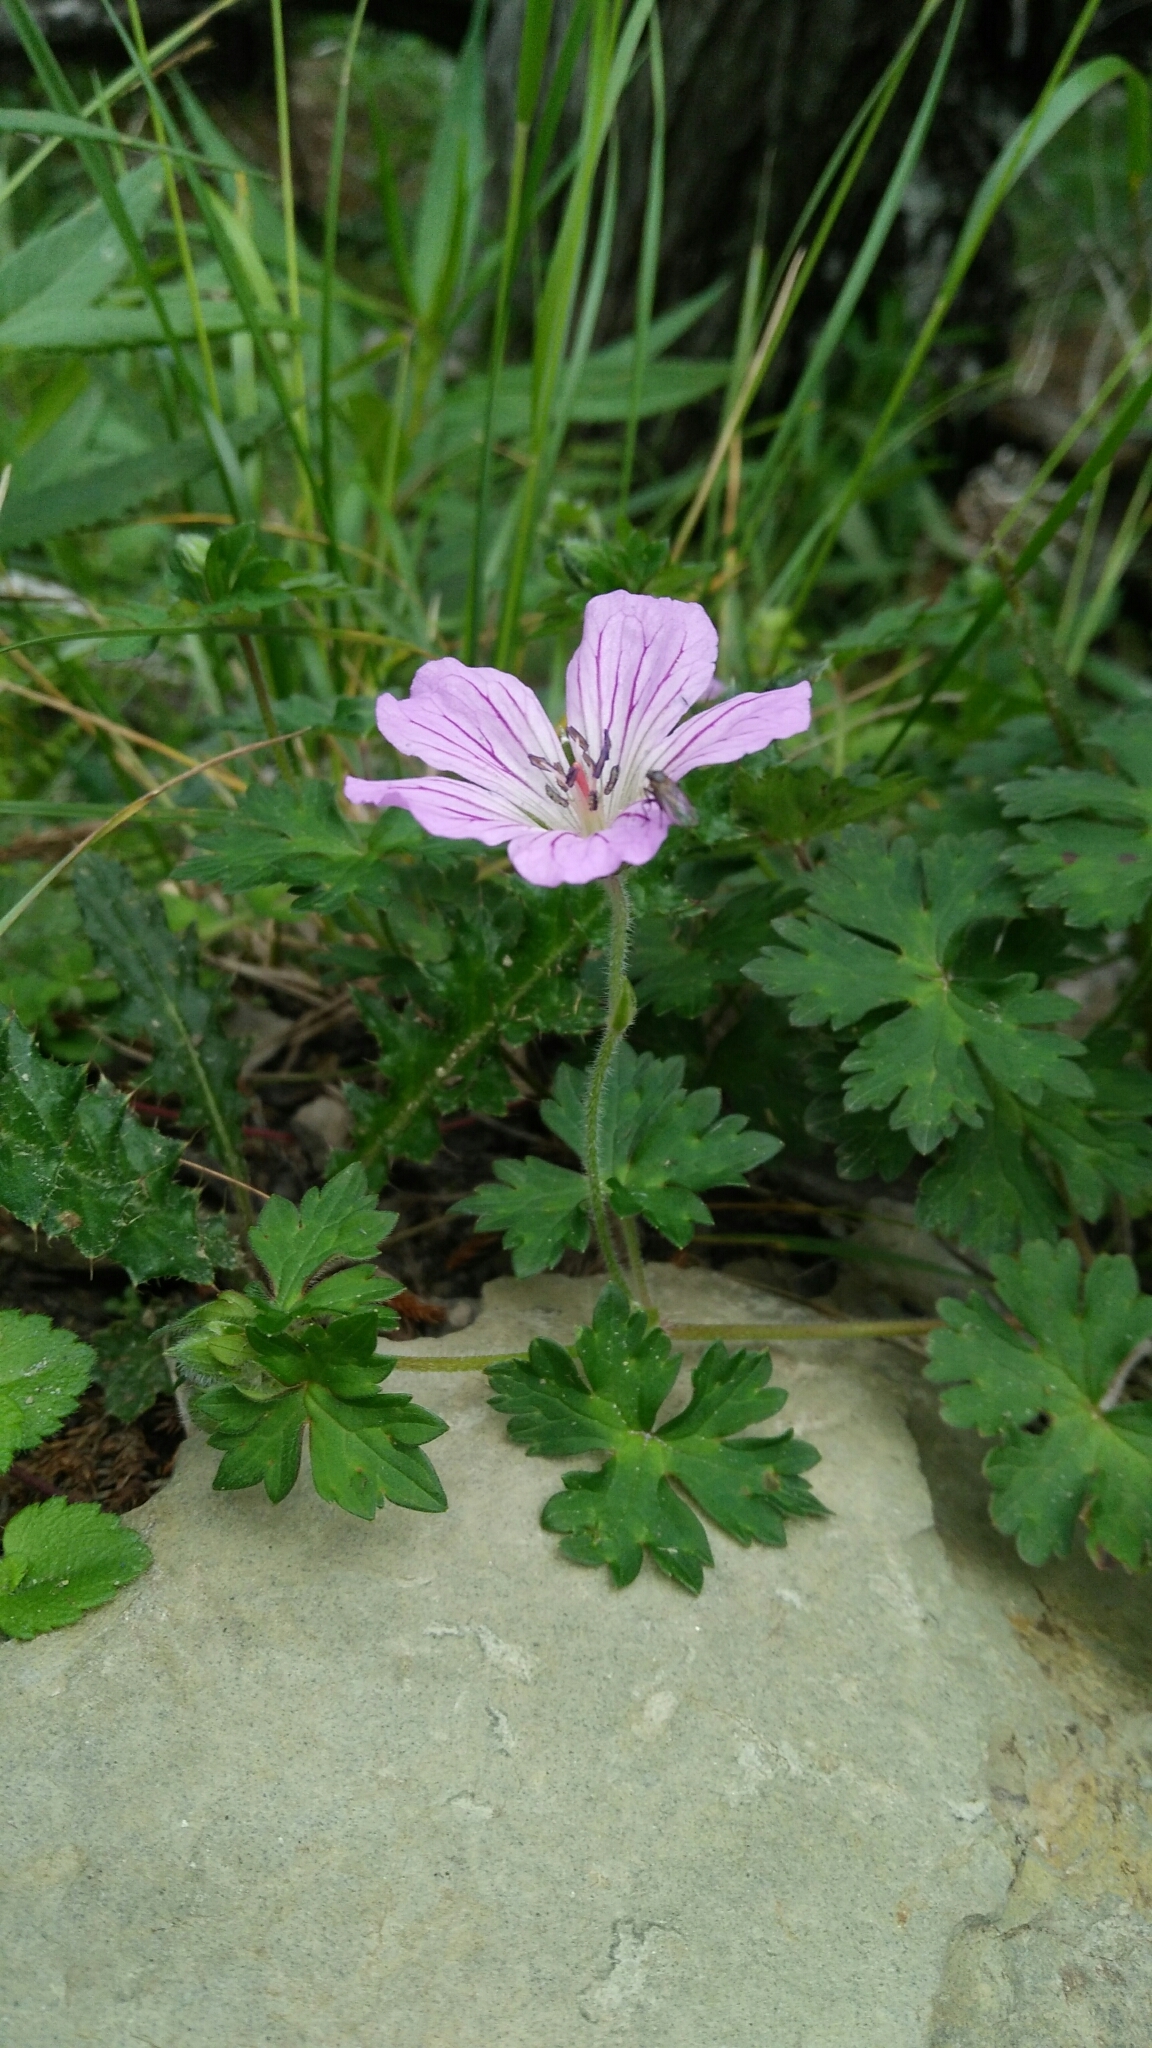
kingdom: Plantae
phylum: Tracheophyta
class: Magnoliopsida
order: Geraniales
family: Geraniaceae
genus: Geranium
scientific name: Geranium hayatanum
